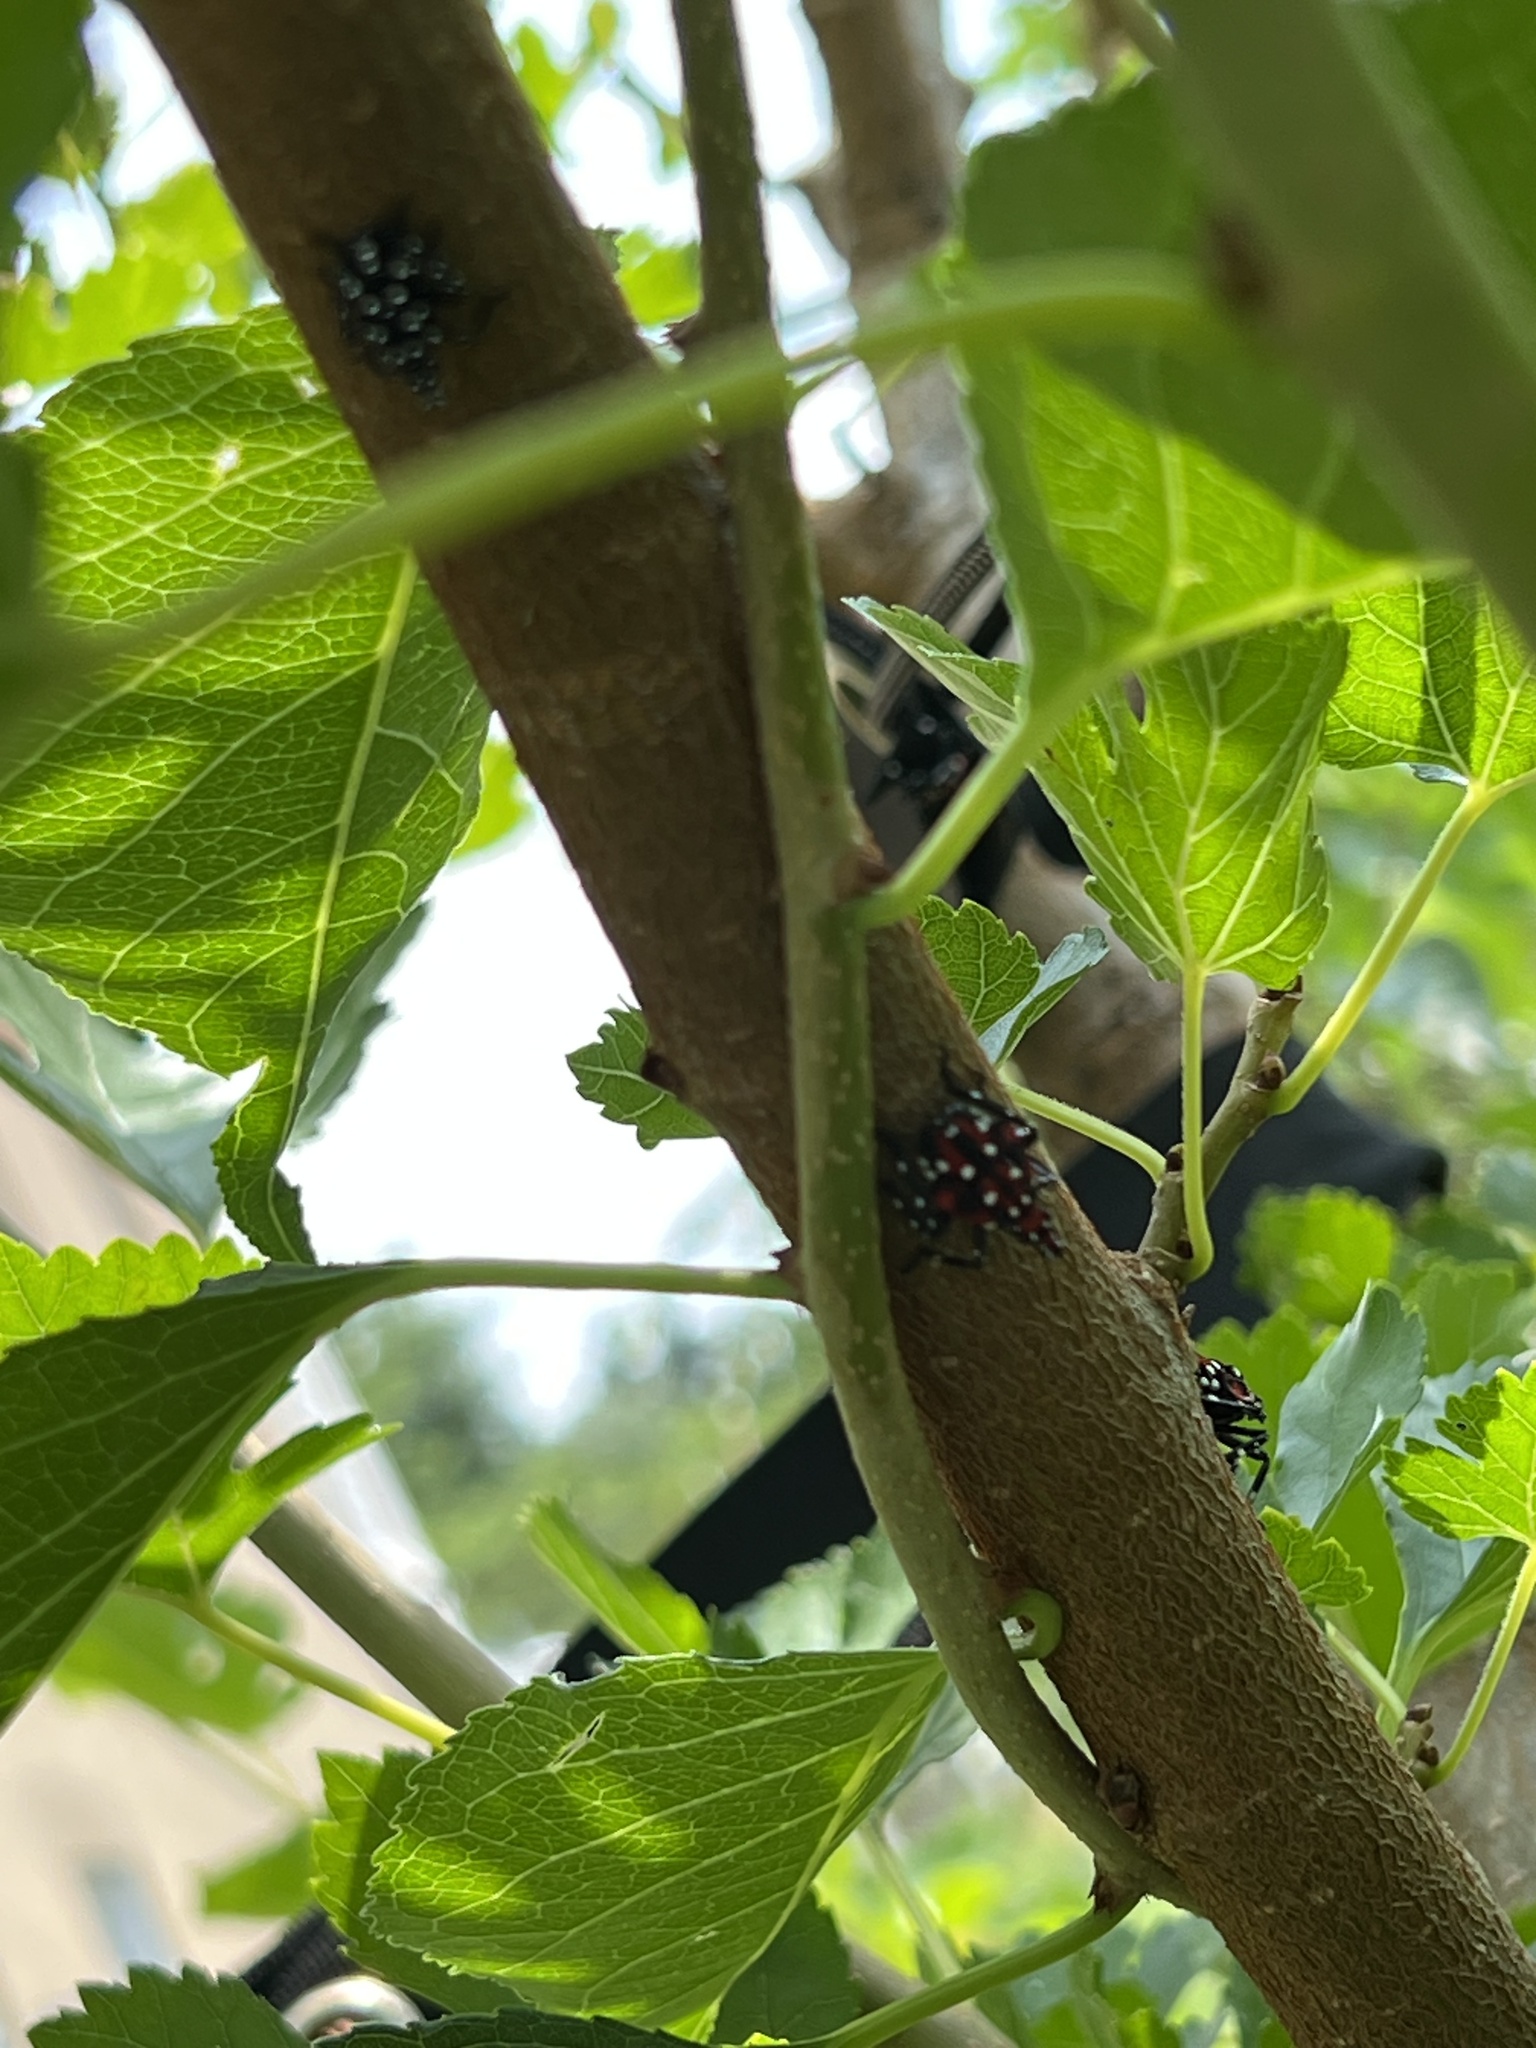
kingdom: Animalia
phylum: Arthropoda
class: Insecta
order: Hemiptera
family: Fulgoridae
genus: Lycorma
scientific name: Lycorma delicatula
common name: Spotted lanternfly
